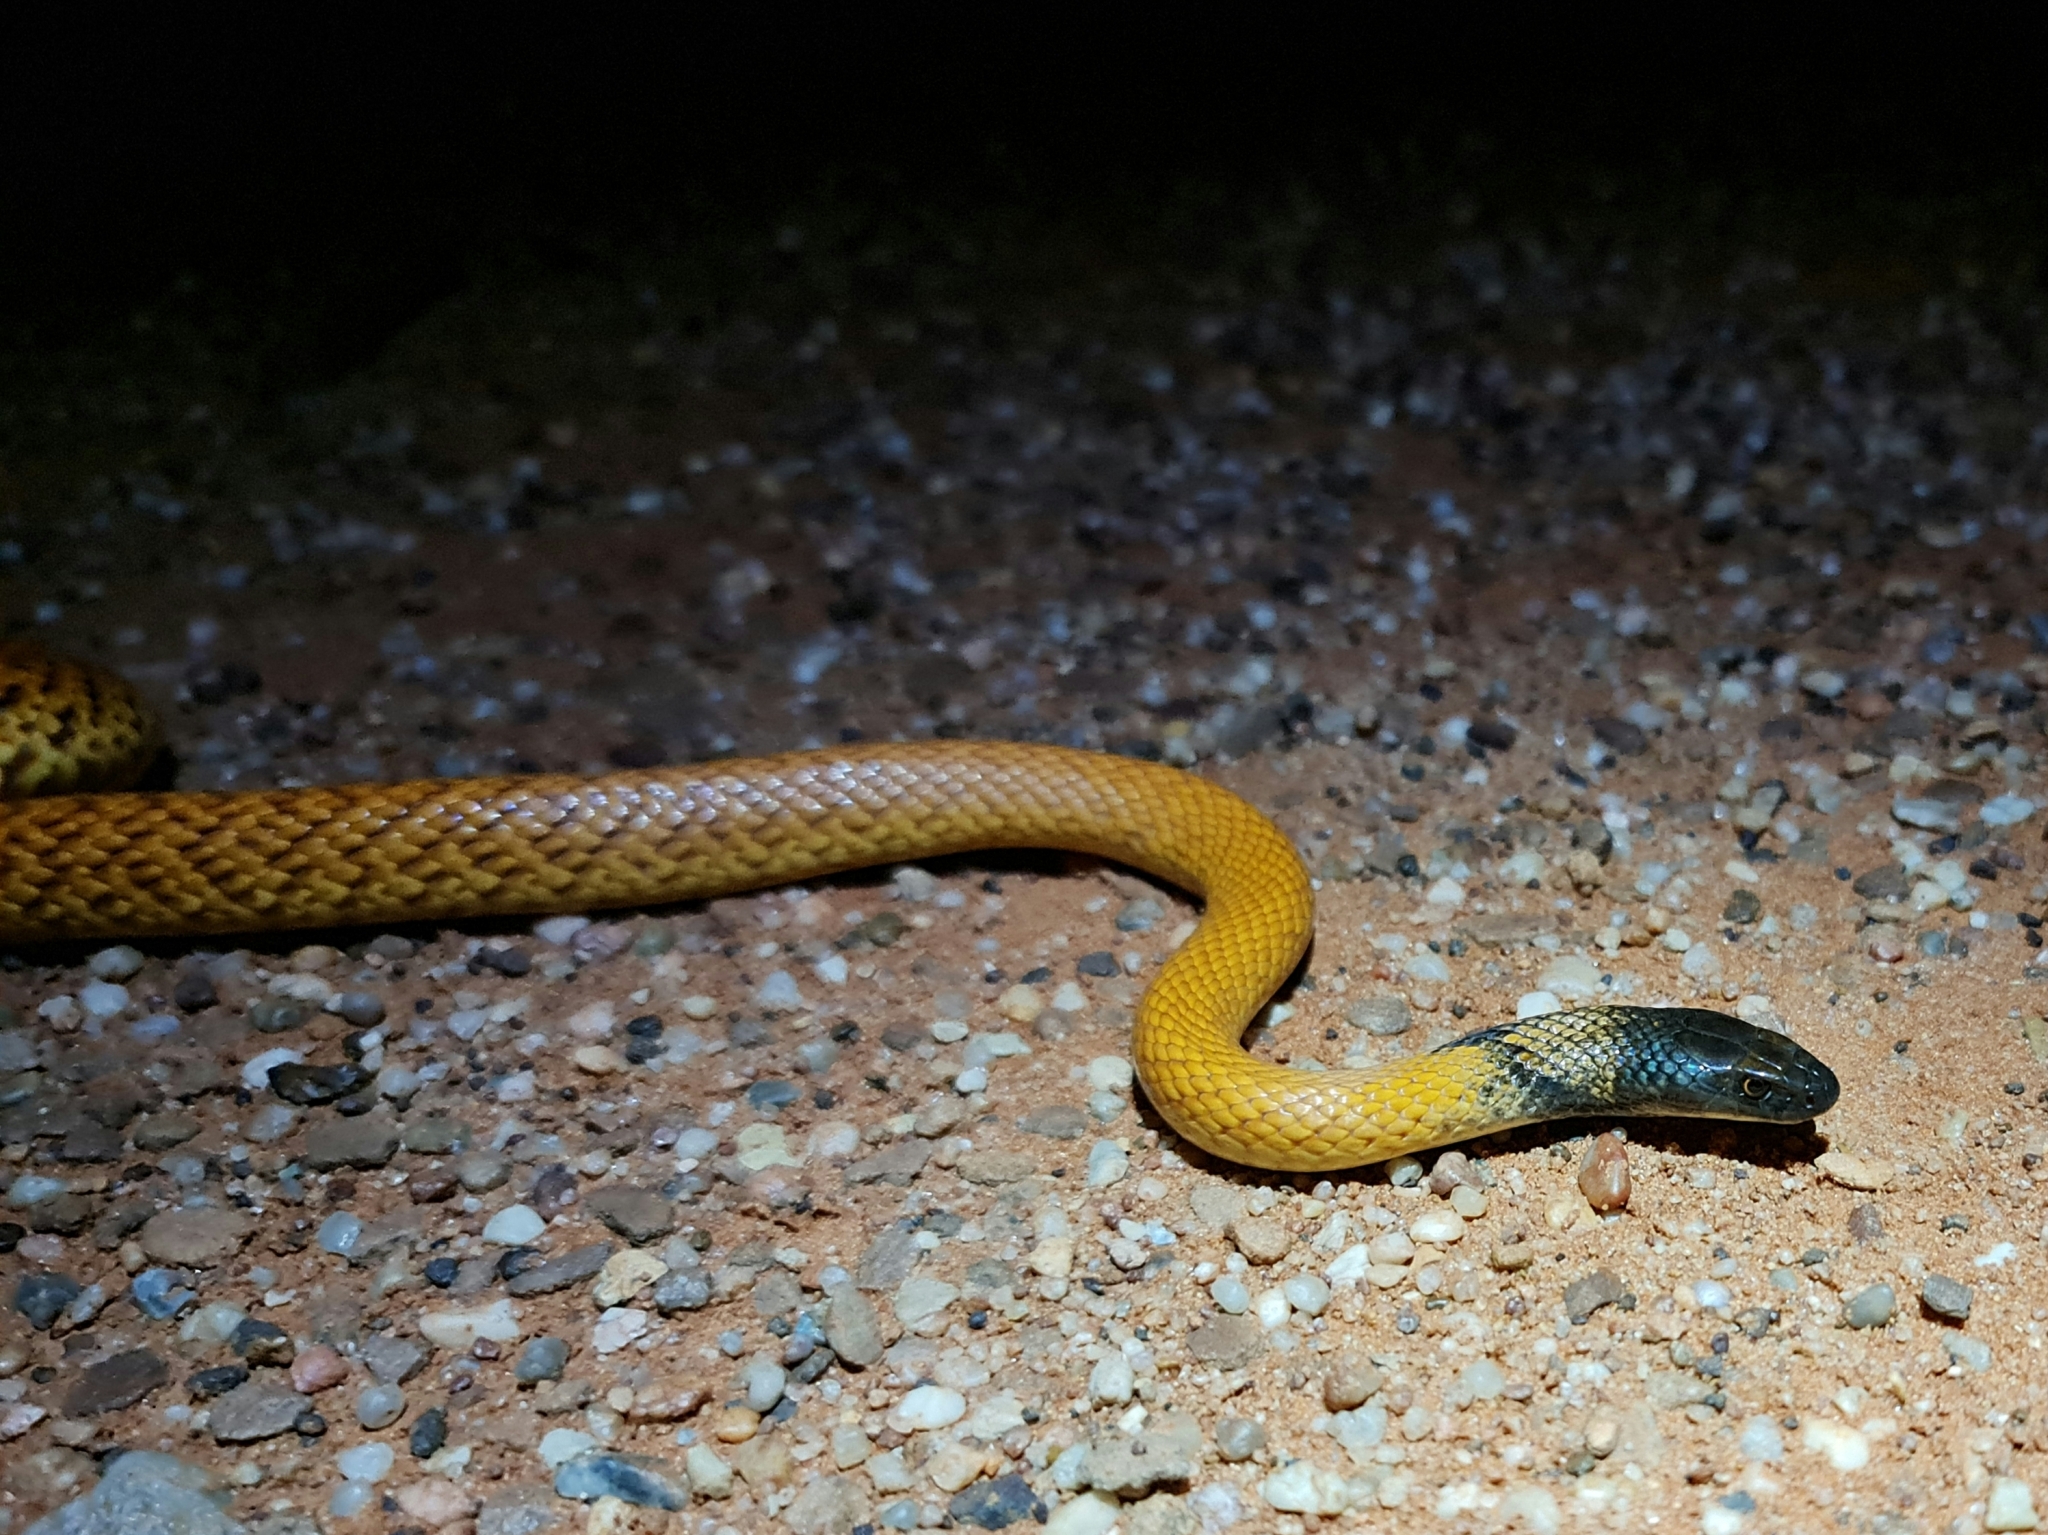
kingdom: Animalia
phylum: Chordata
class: Squamata
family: Elapidae
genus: Pseudonaja
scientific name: Pseudonaja mengdeni
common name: Gwardar
